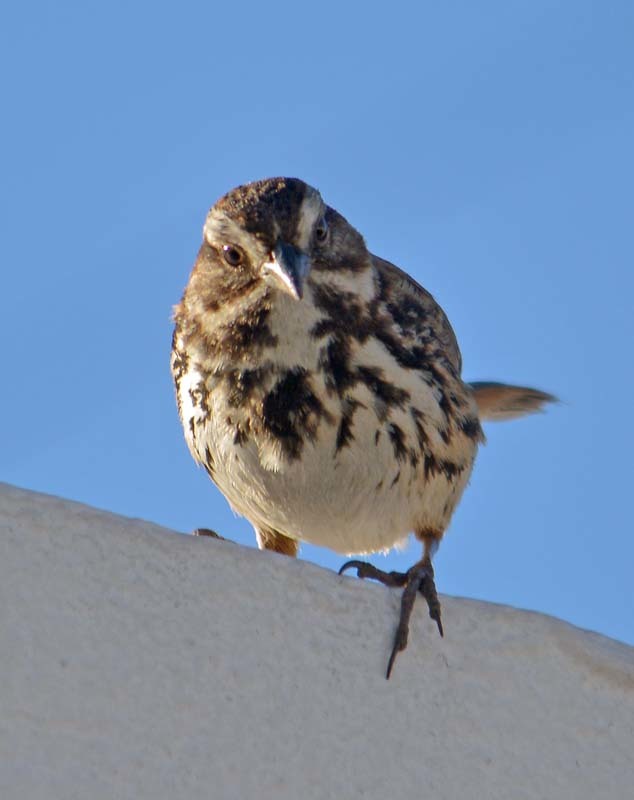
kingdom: Animalia
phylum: Chordata
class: Aves
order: Passeriformes
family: Passerellidae
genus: Melospiza
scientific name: Melospiza melodia
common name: Song sparrow
